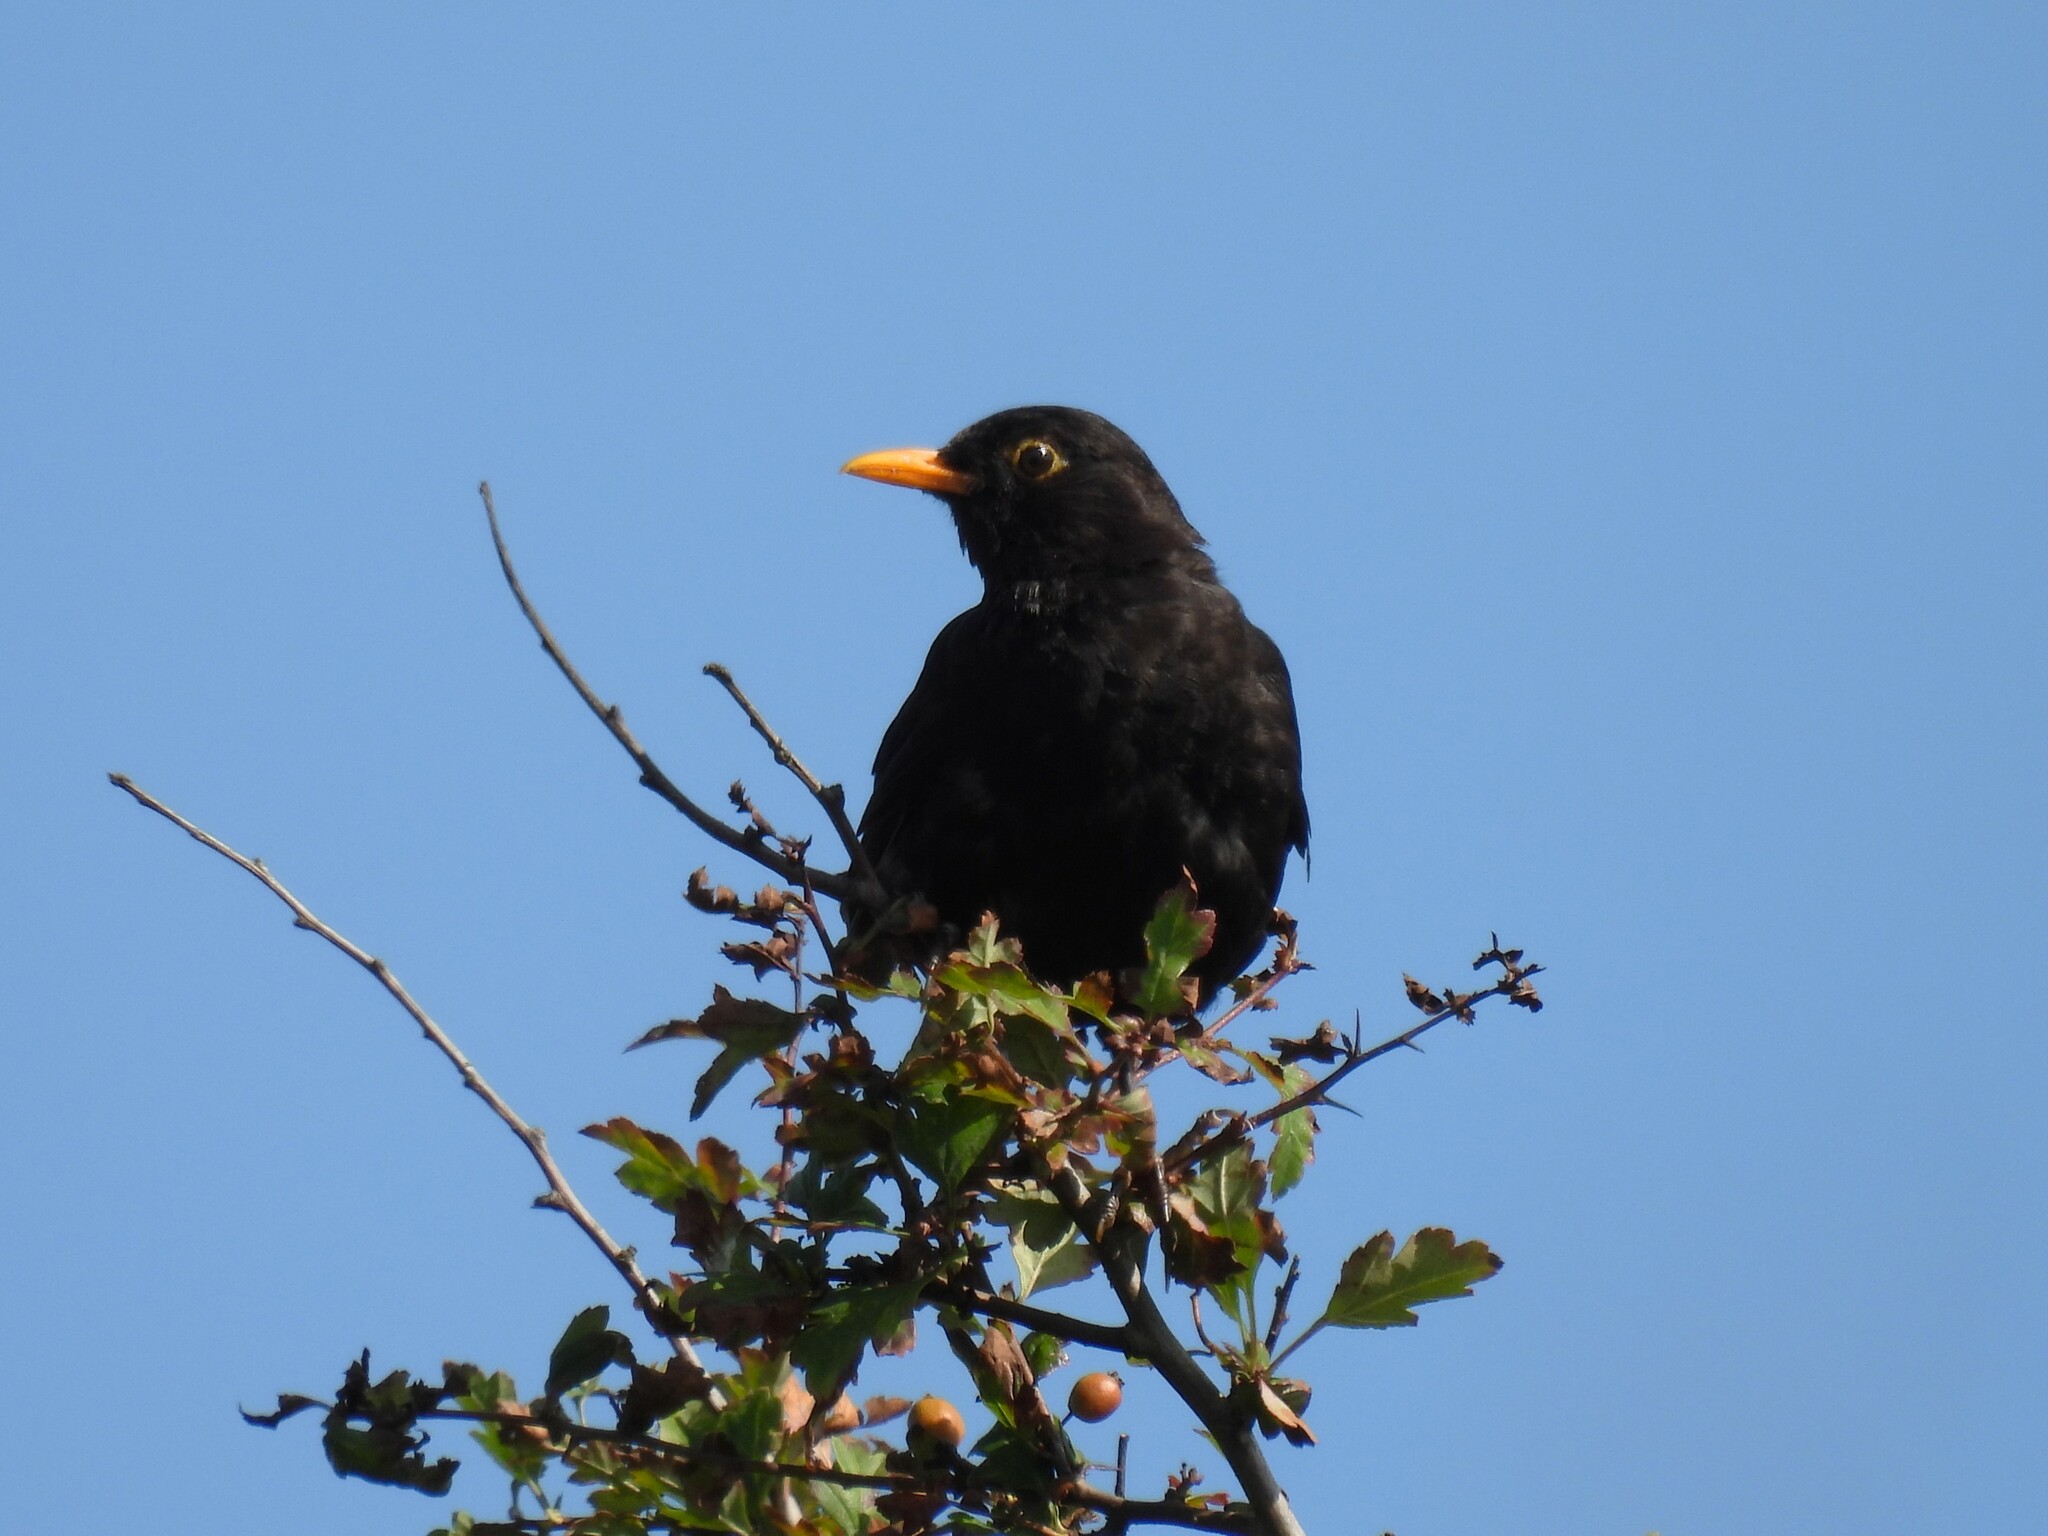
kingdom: Animalia
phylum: Chordata
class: Aves
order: Passeriformes
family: Turdidae
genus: Turdus
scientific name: Turdus merula
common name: Common blackbird
